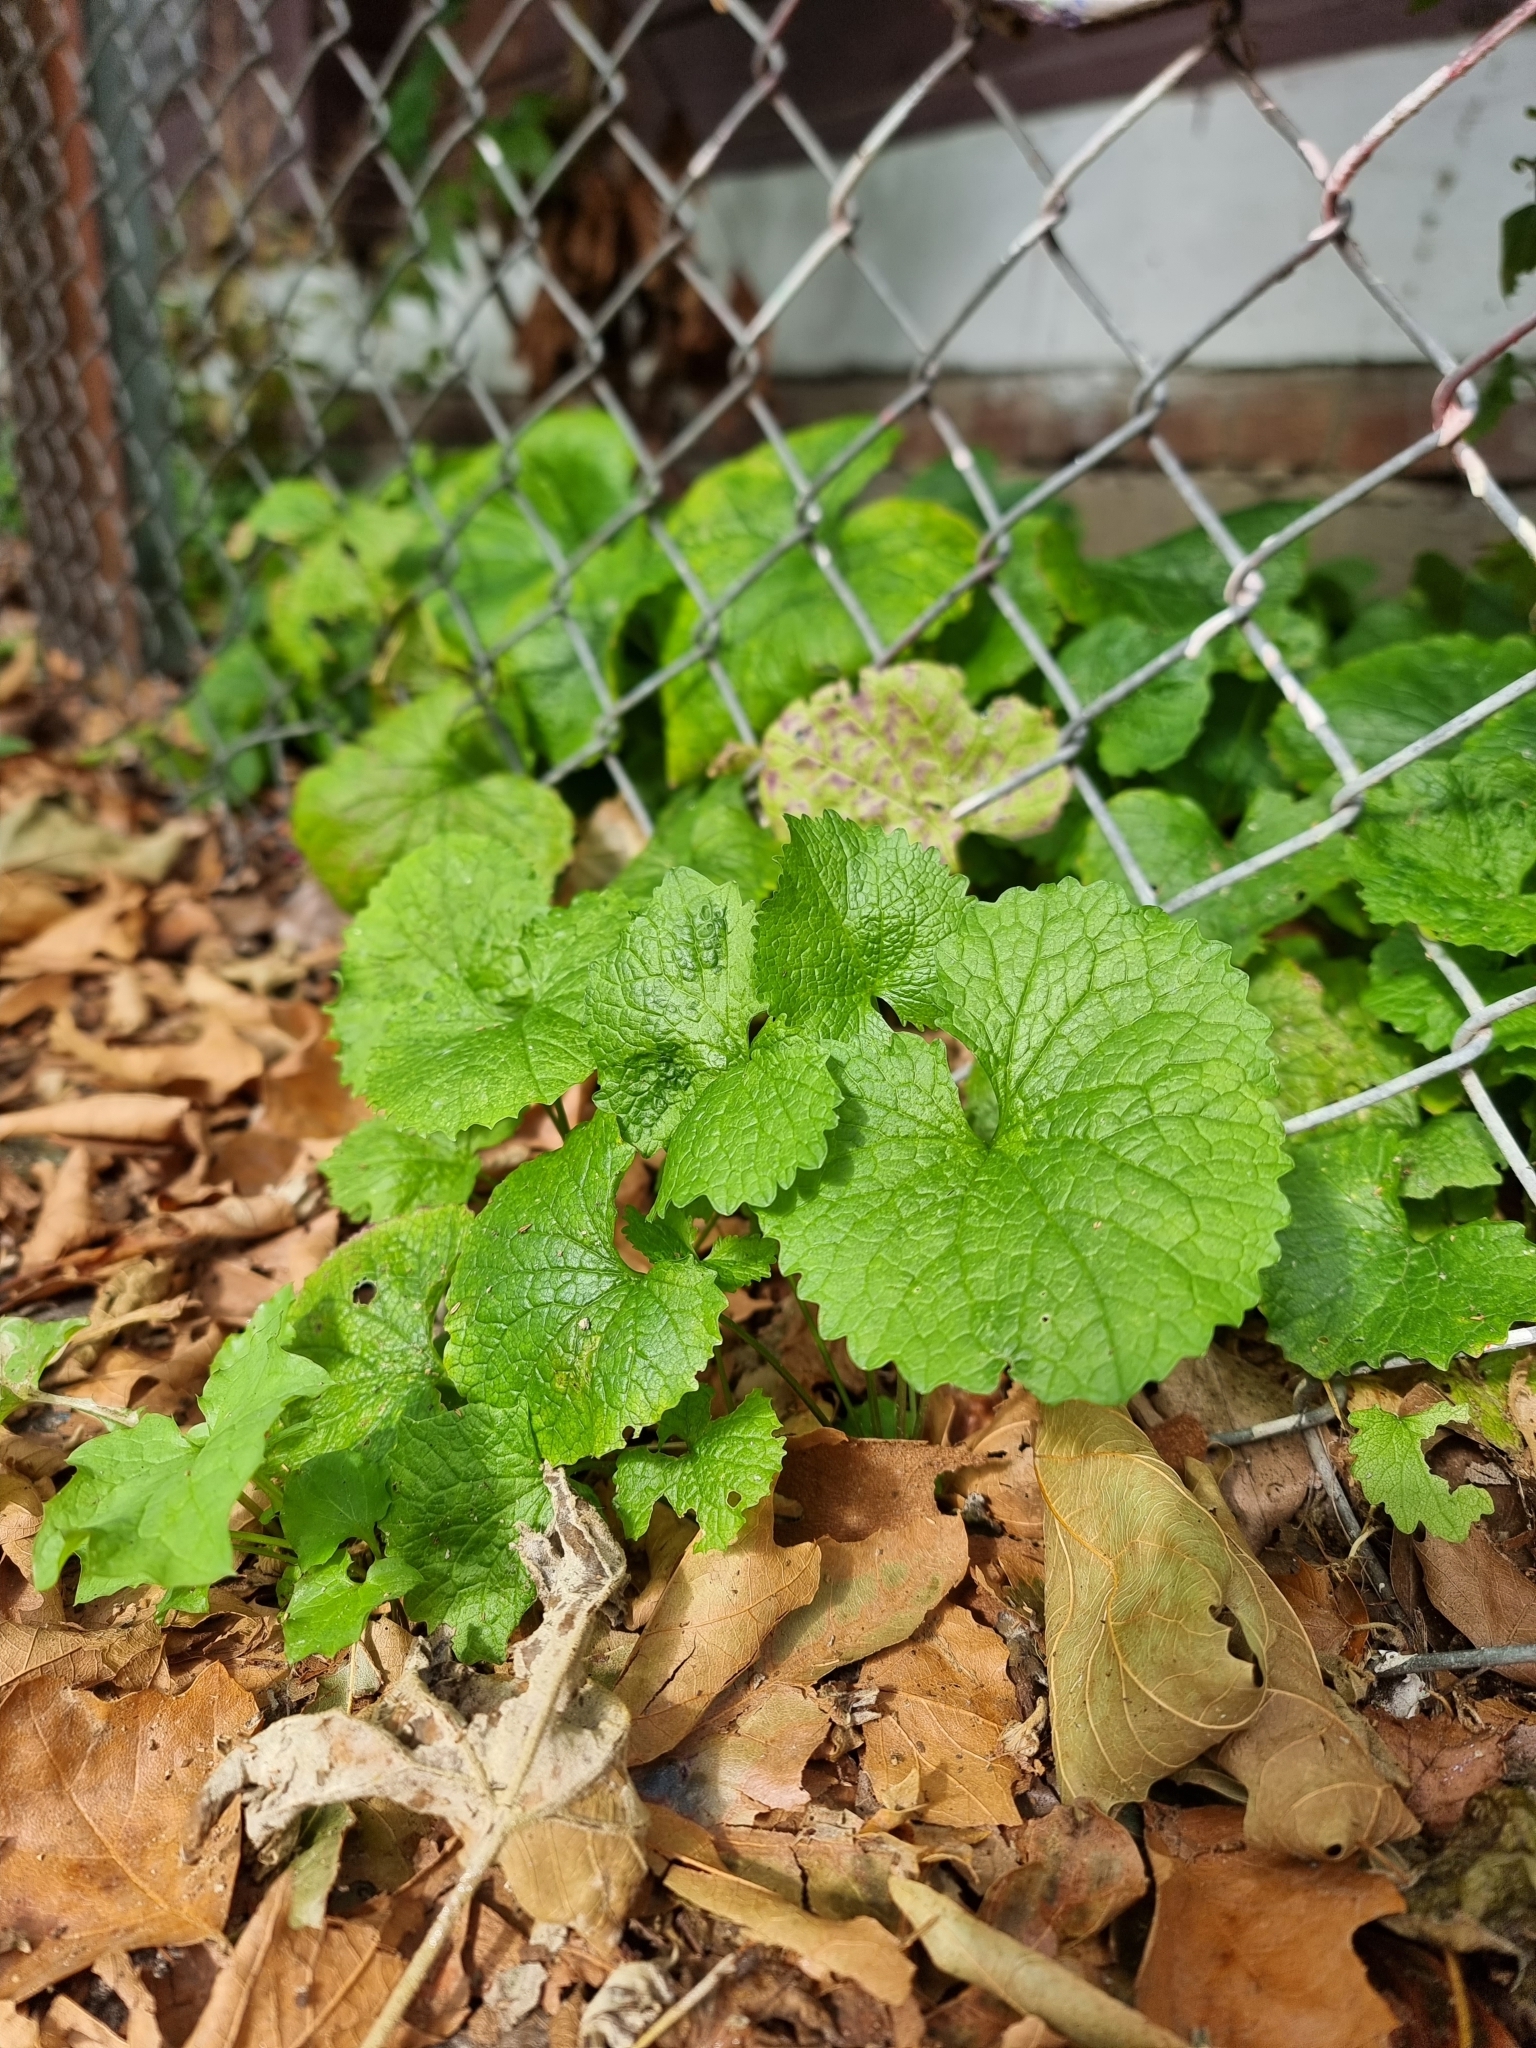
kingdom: Plantae
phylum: Tracheophyta
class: Magnoliopsida
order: Brassicales
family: Brassicaceae
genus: Alliaria
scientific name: Alliaria petiolata
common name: Garlic mustard
